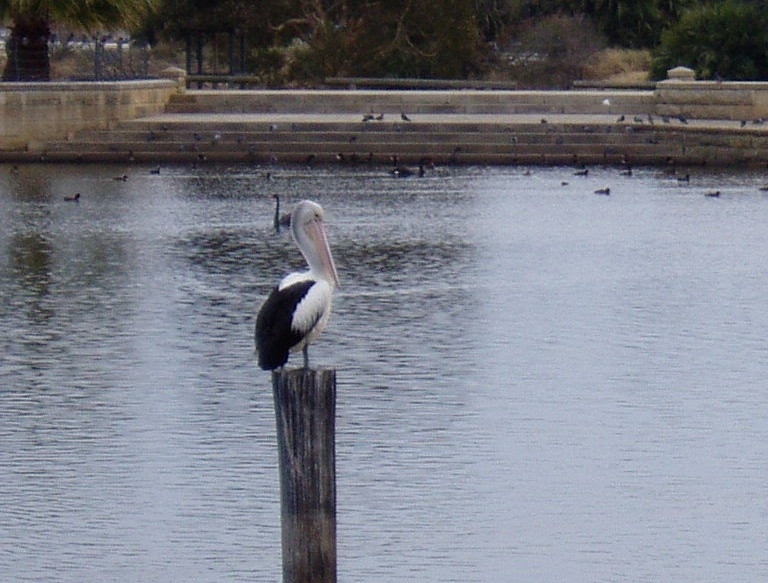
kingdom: Animalia
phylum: Chordata
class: Aves
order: Pelecaniformes
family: Pelecanidae
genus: Pelecanus
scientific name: Pelecanus conspicillatus
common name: Australian pelican
